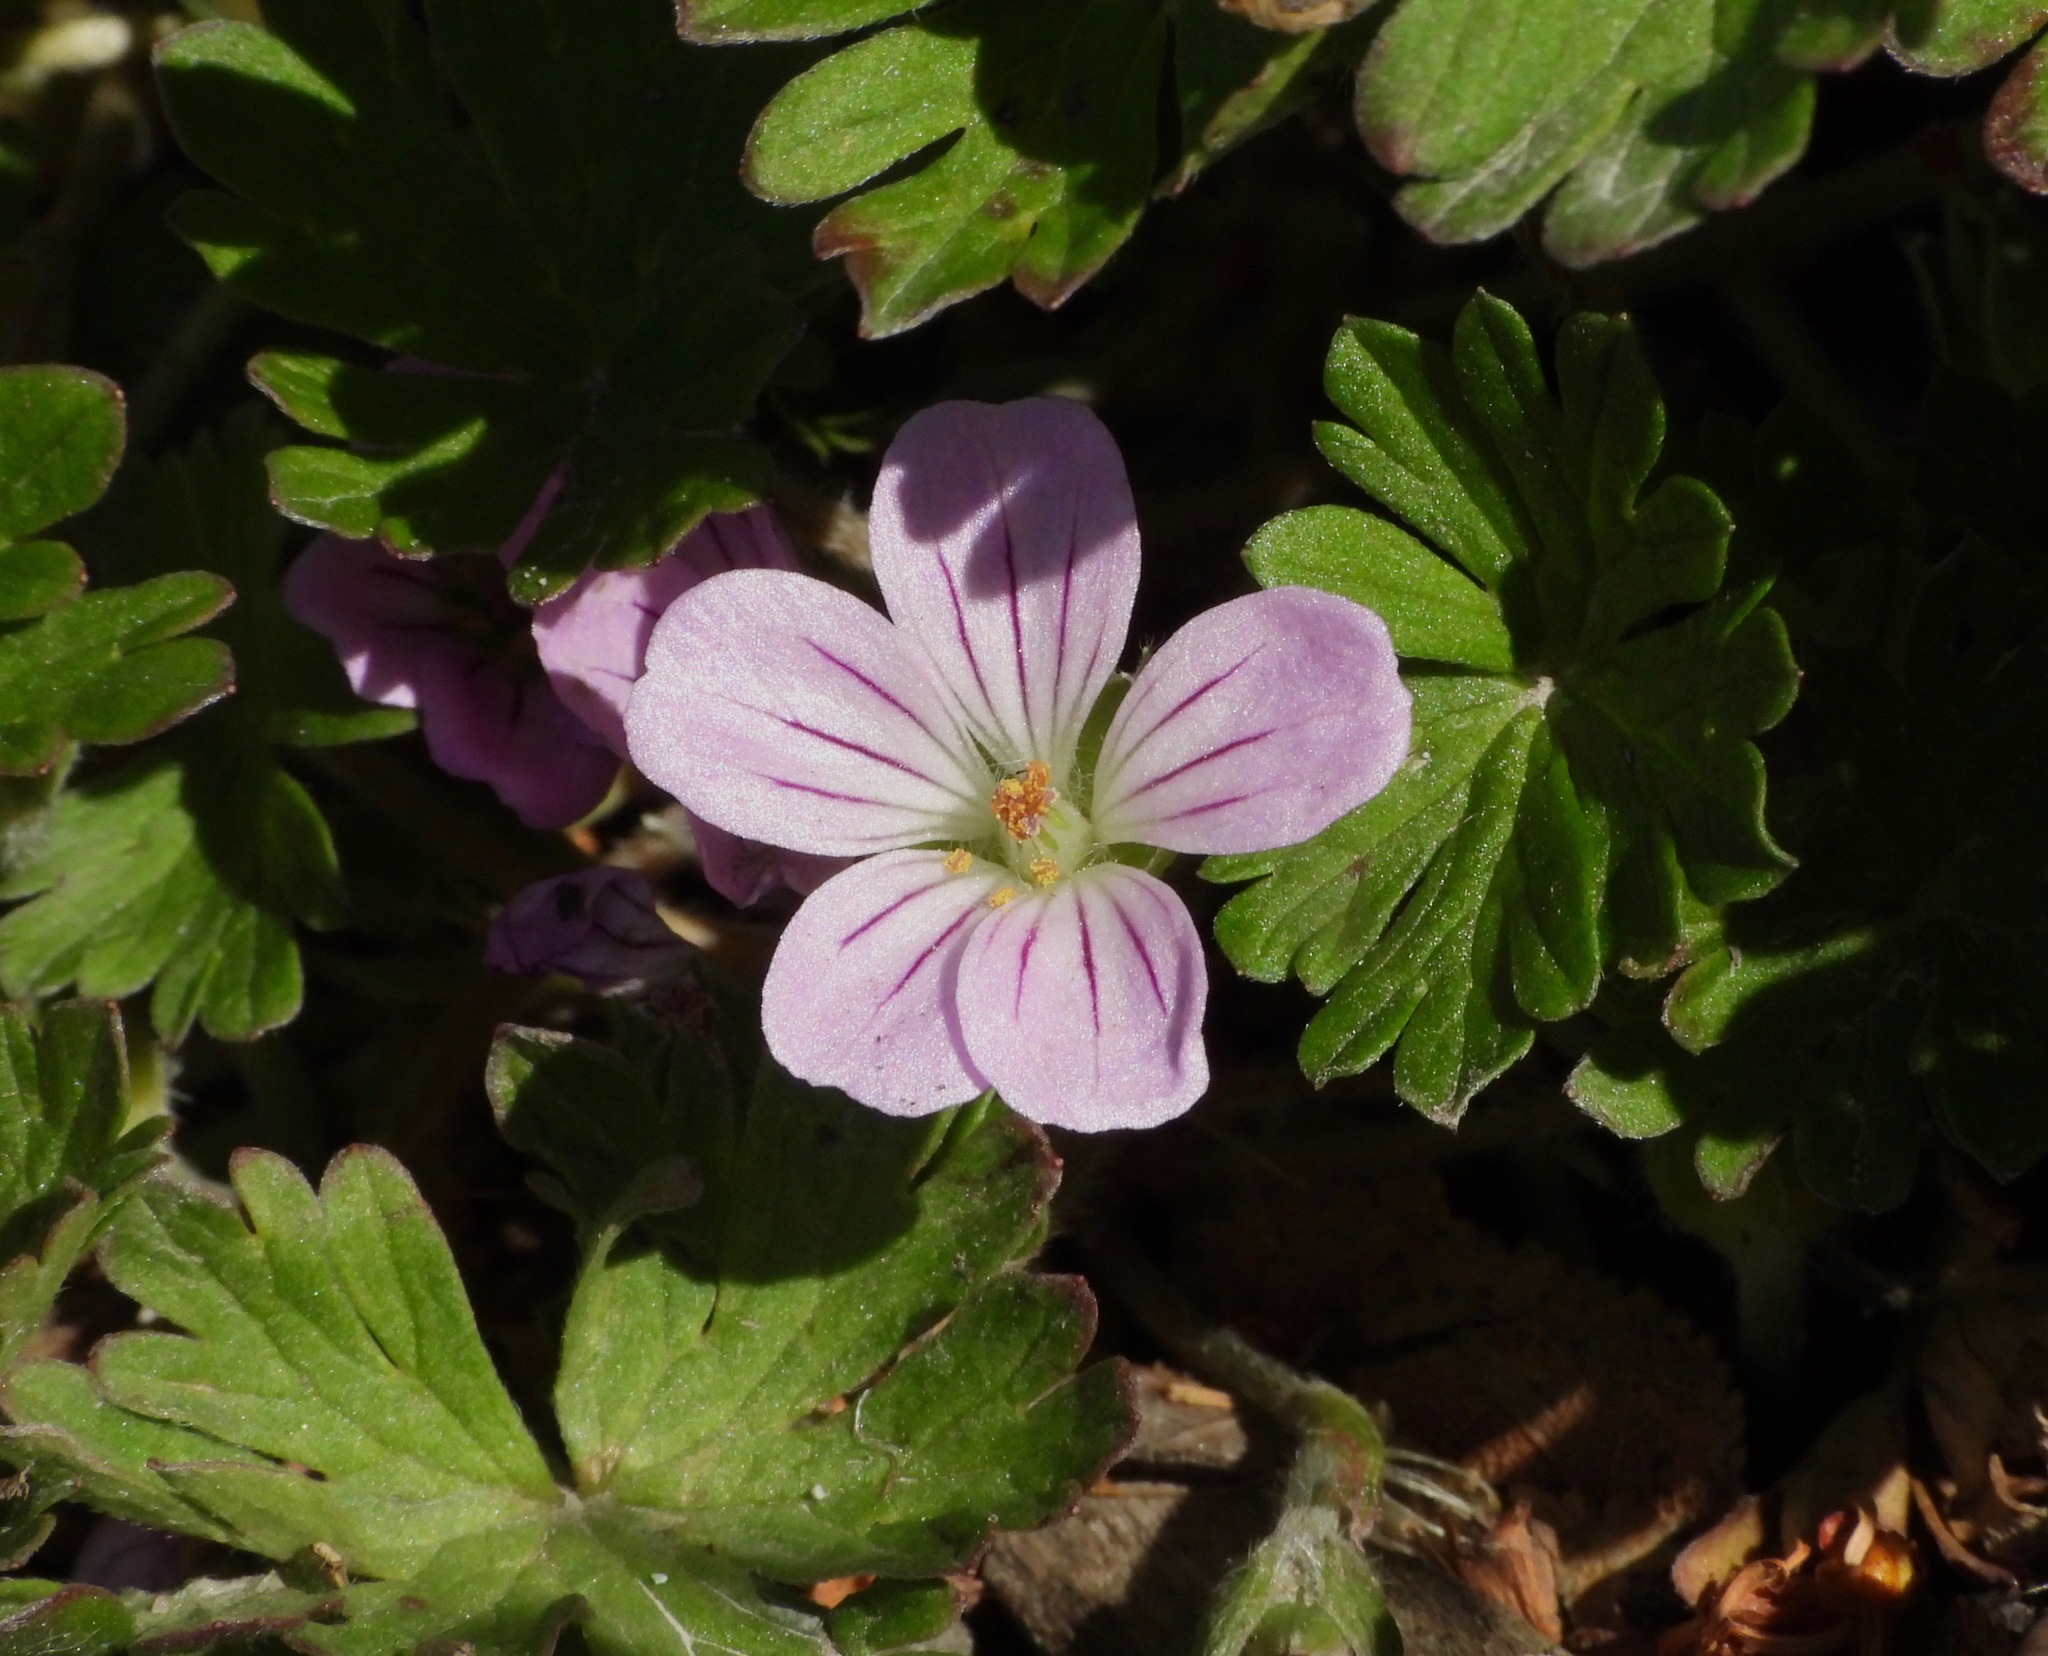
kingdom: Plantae
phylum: Tracheophyta
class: Magnoliopsida
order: Geraniales
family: Geraniaceae
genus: Geranium
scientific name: Geranium magellanicum
